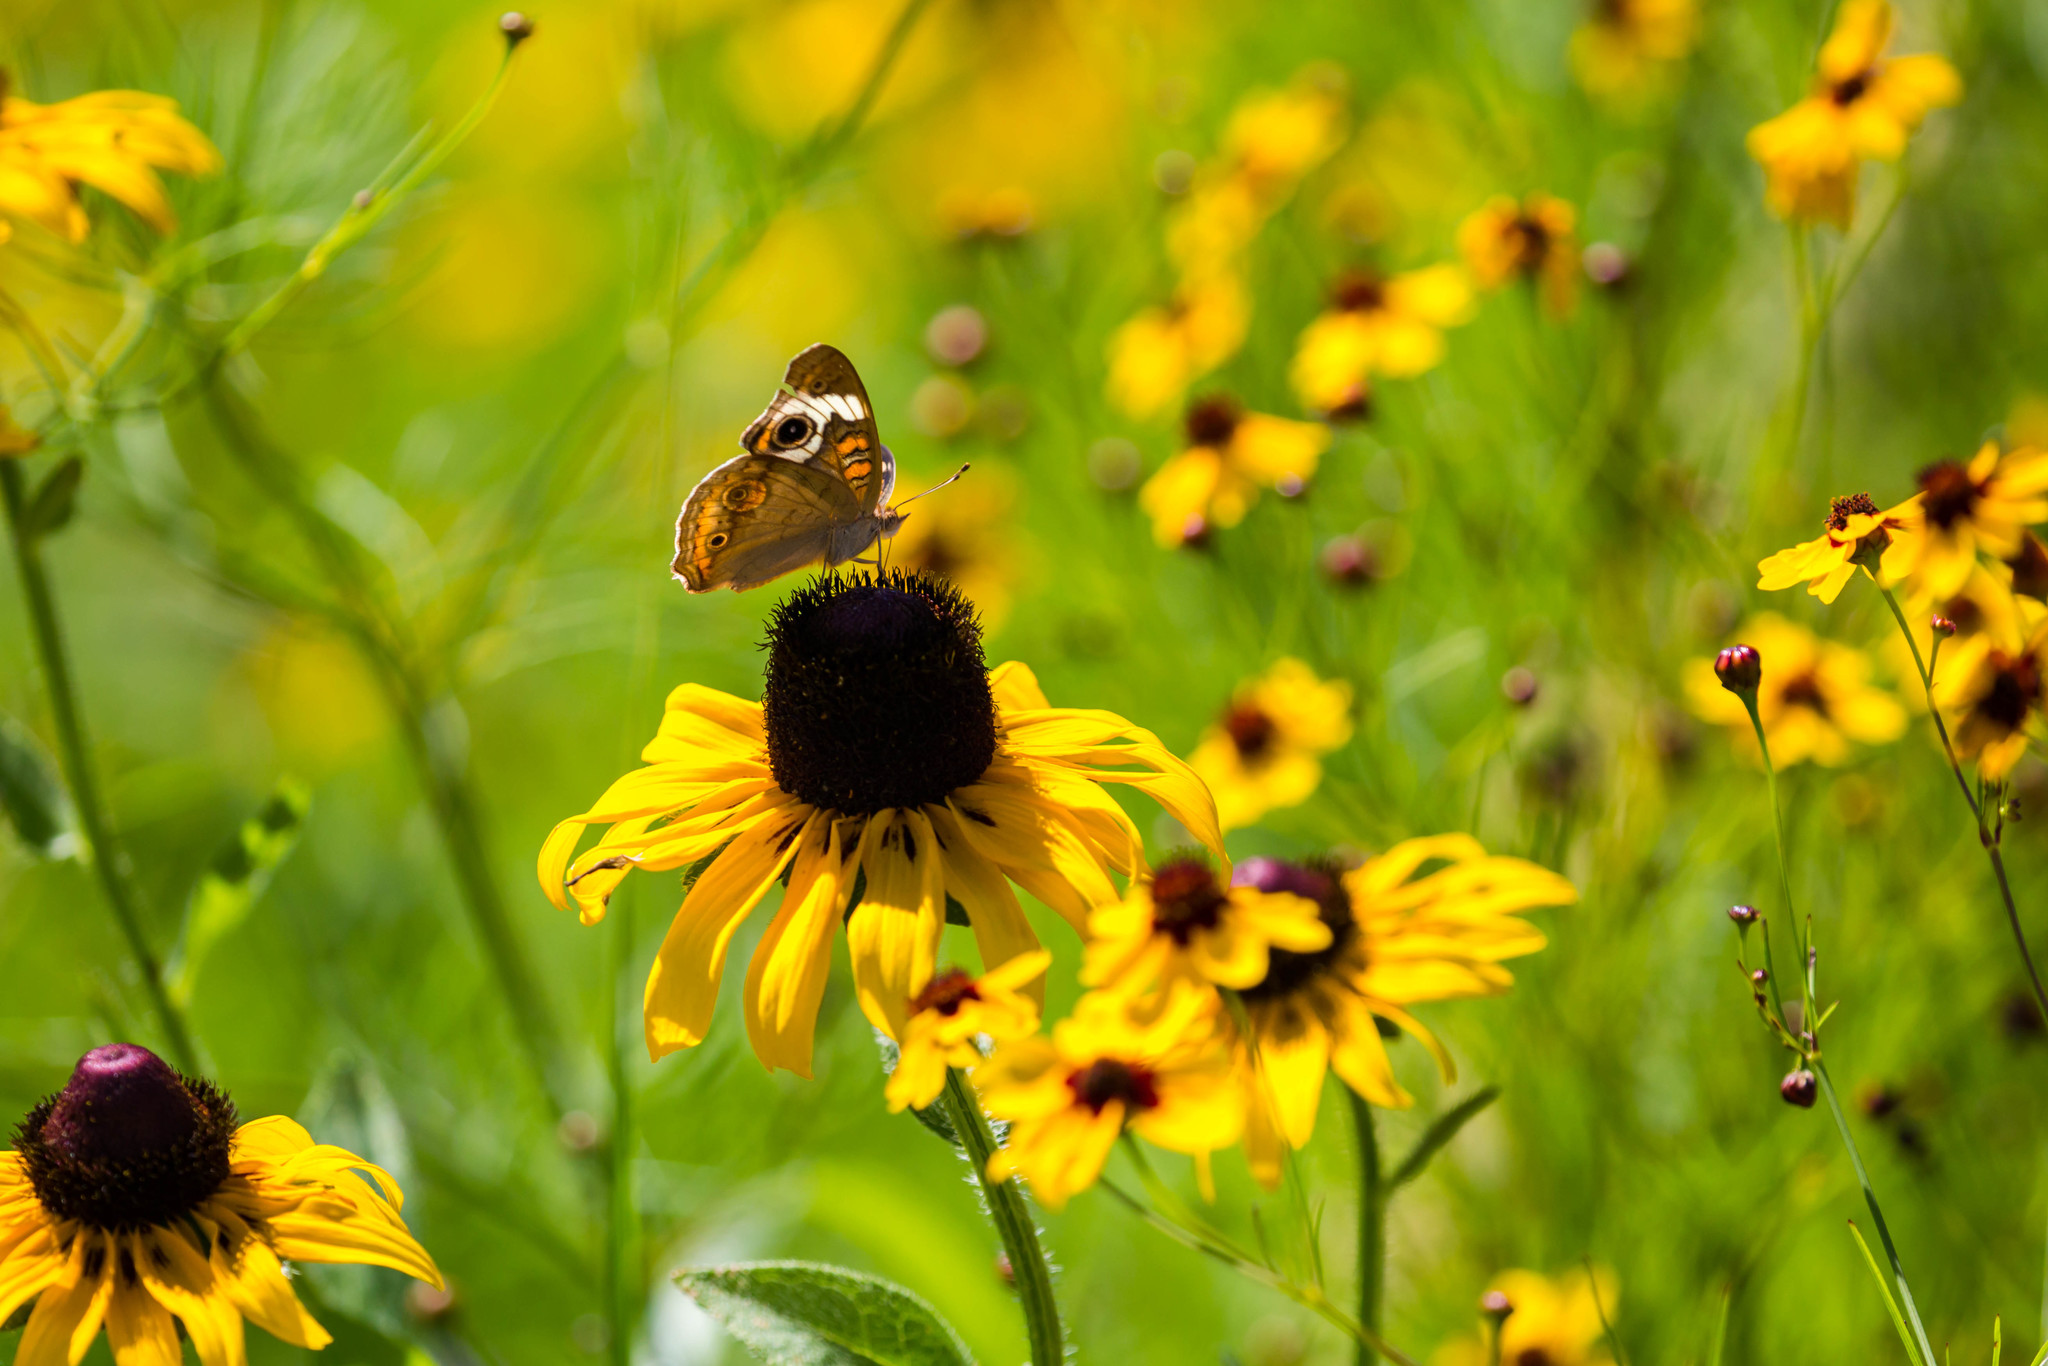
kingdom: Animalia
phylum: Arthropoda
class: Insecta
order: Lepidoptera
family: Nymphalidae
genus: Junonia
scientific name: Junonia coenia
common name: Common buckeye
